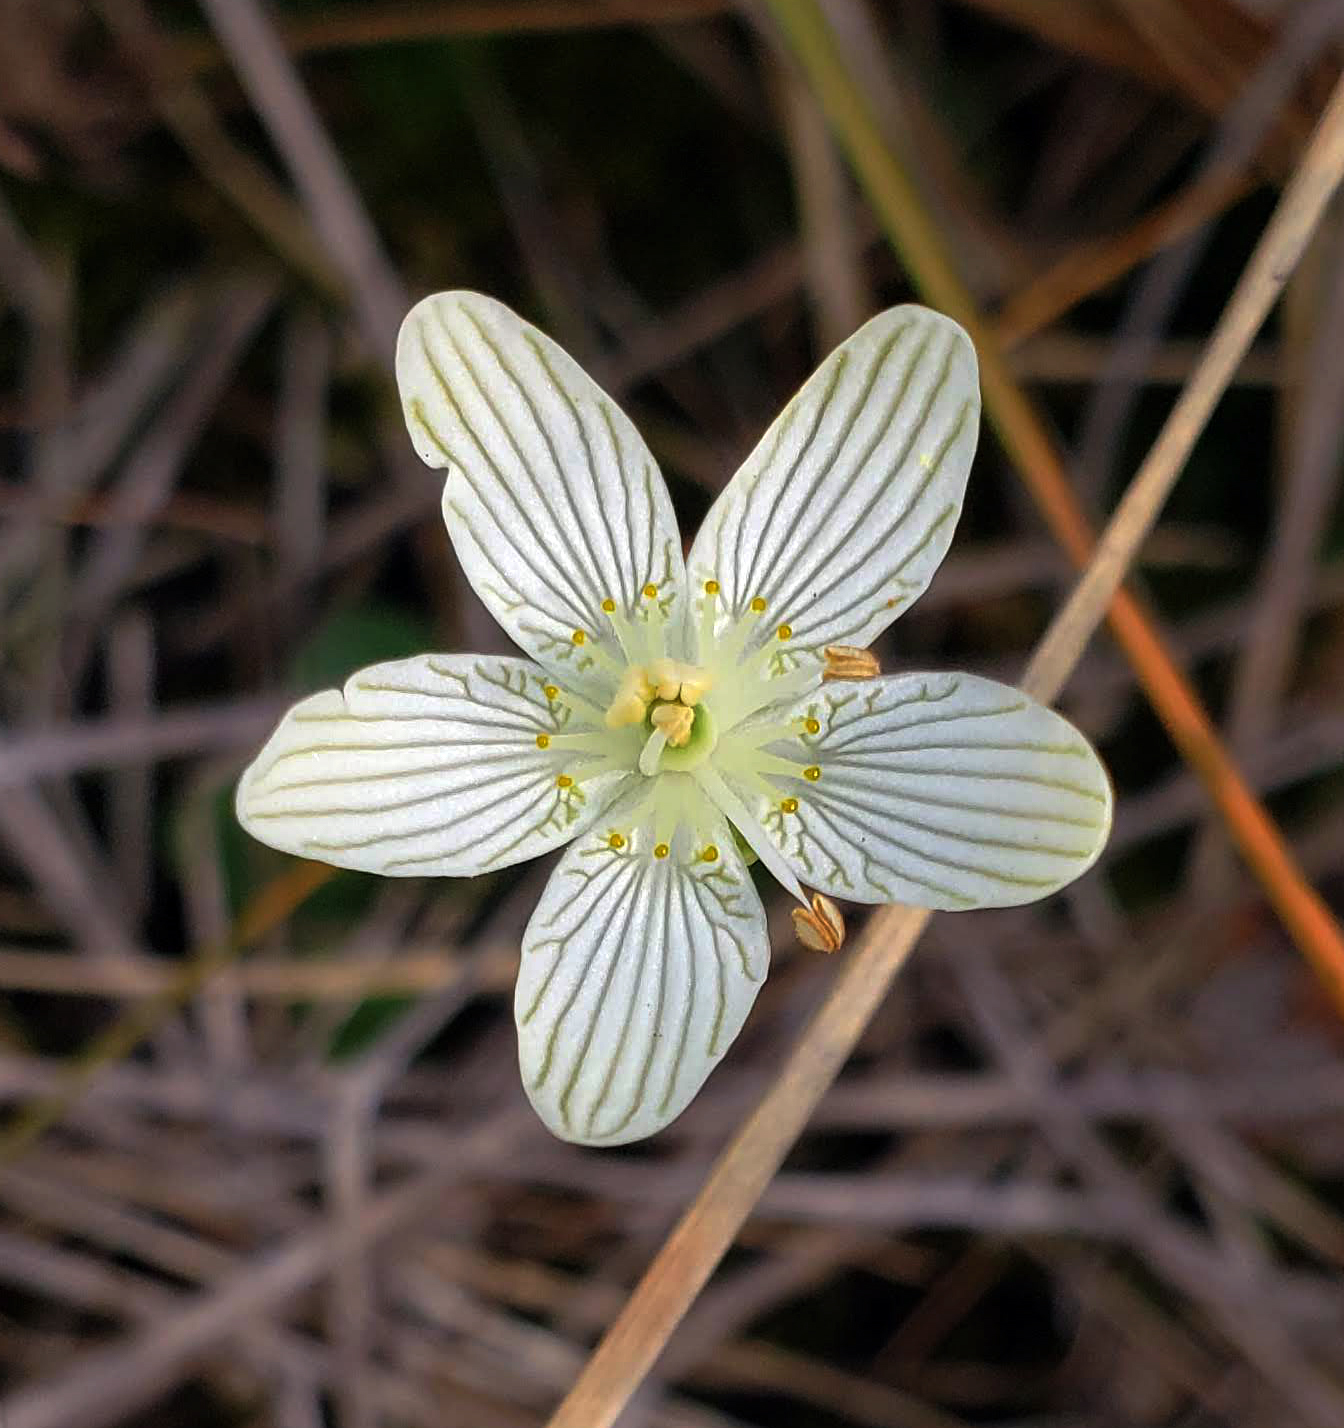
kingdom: Plantae
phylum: Tracheophyta
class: Magnoliopsida
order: Celastrales
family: Parnassiaceae
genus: Parnassia
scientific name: Parnassia glauca
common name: American grass-of-parnassus
